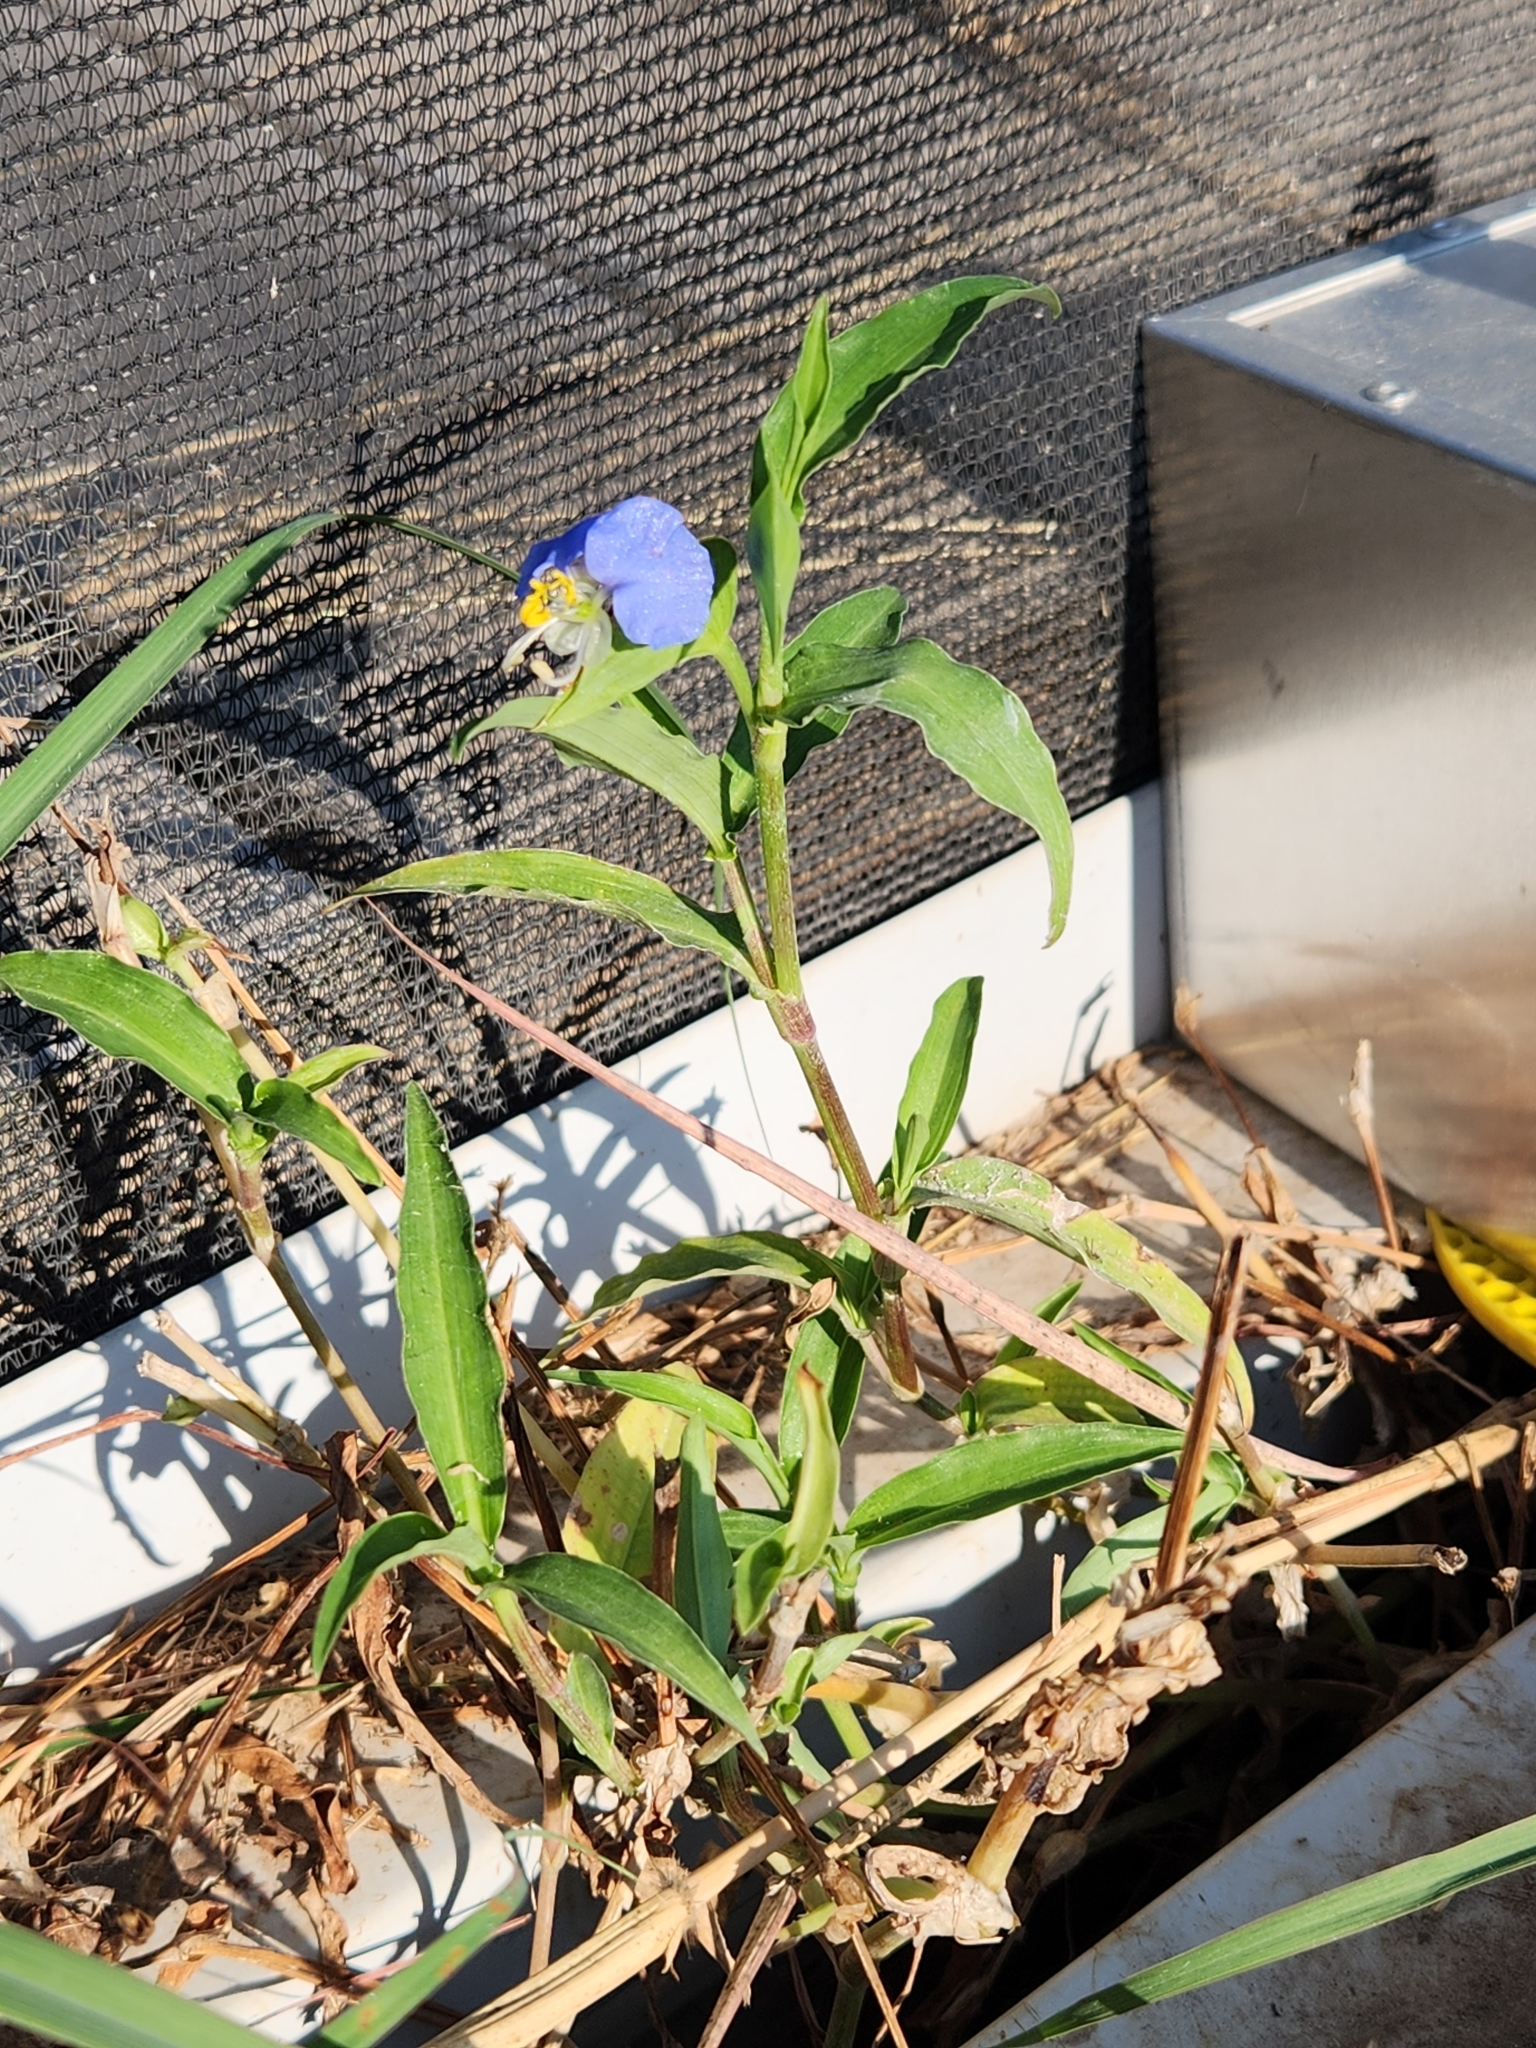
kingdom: Plantae
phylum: Tracheophyta
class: Liliopsida
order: Commelinales
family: Commelinaceae
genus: Commelina
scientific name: Commelina erecta
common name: Blousel blommetjie
